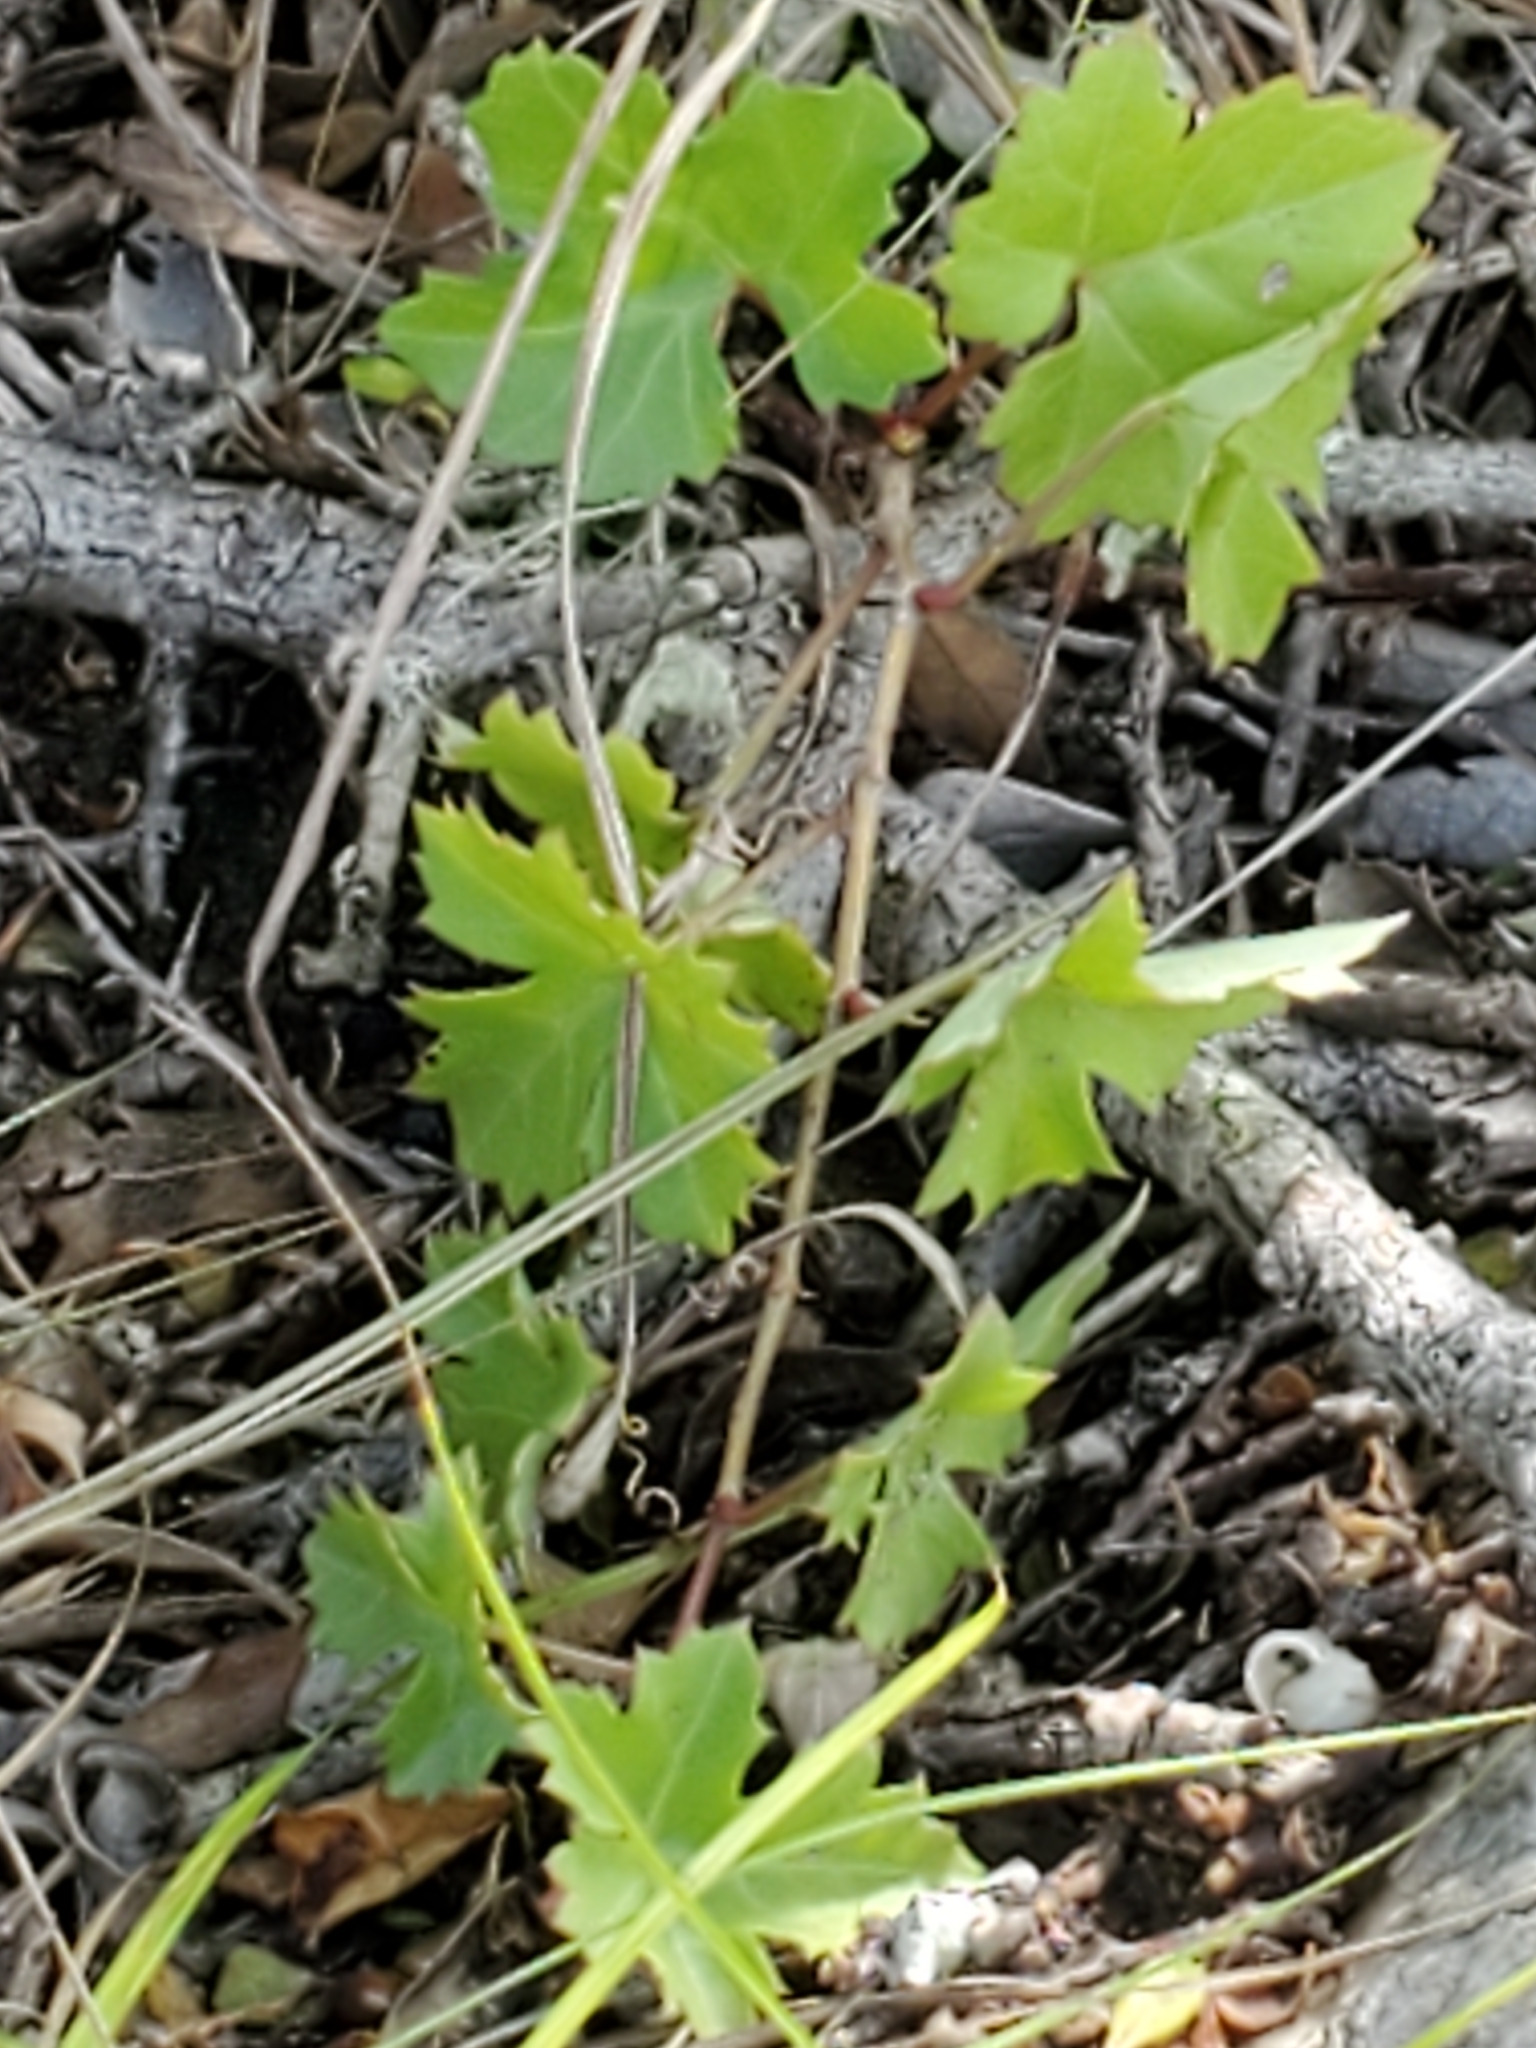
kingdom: Plantae
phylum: Tracheophyta
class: Magnoliopsida
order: Vitales
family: Vitaceae
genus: Cissus
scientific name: Cissus trifoliata
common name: Vine-sorrel
